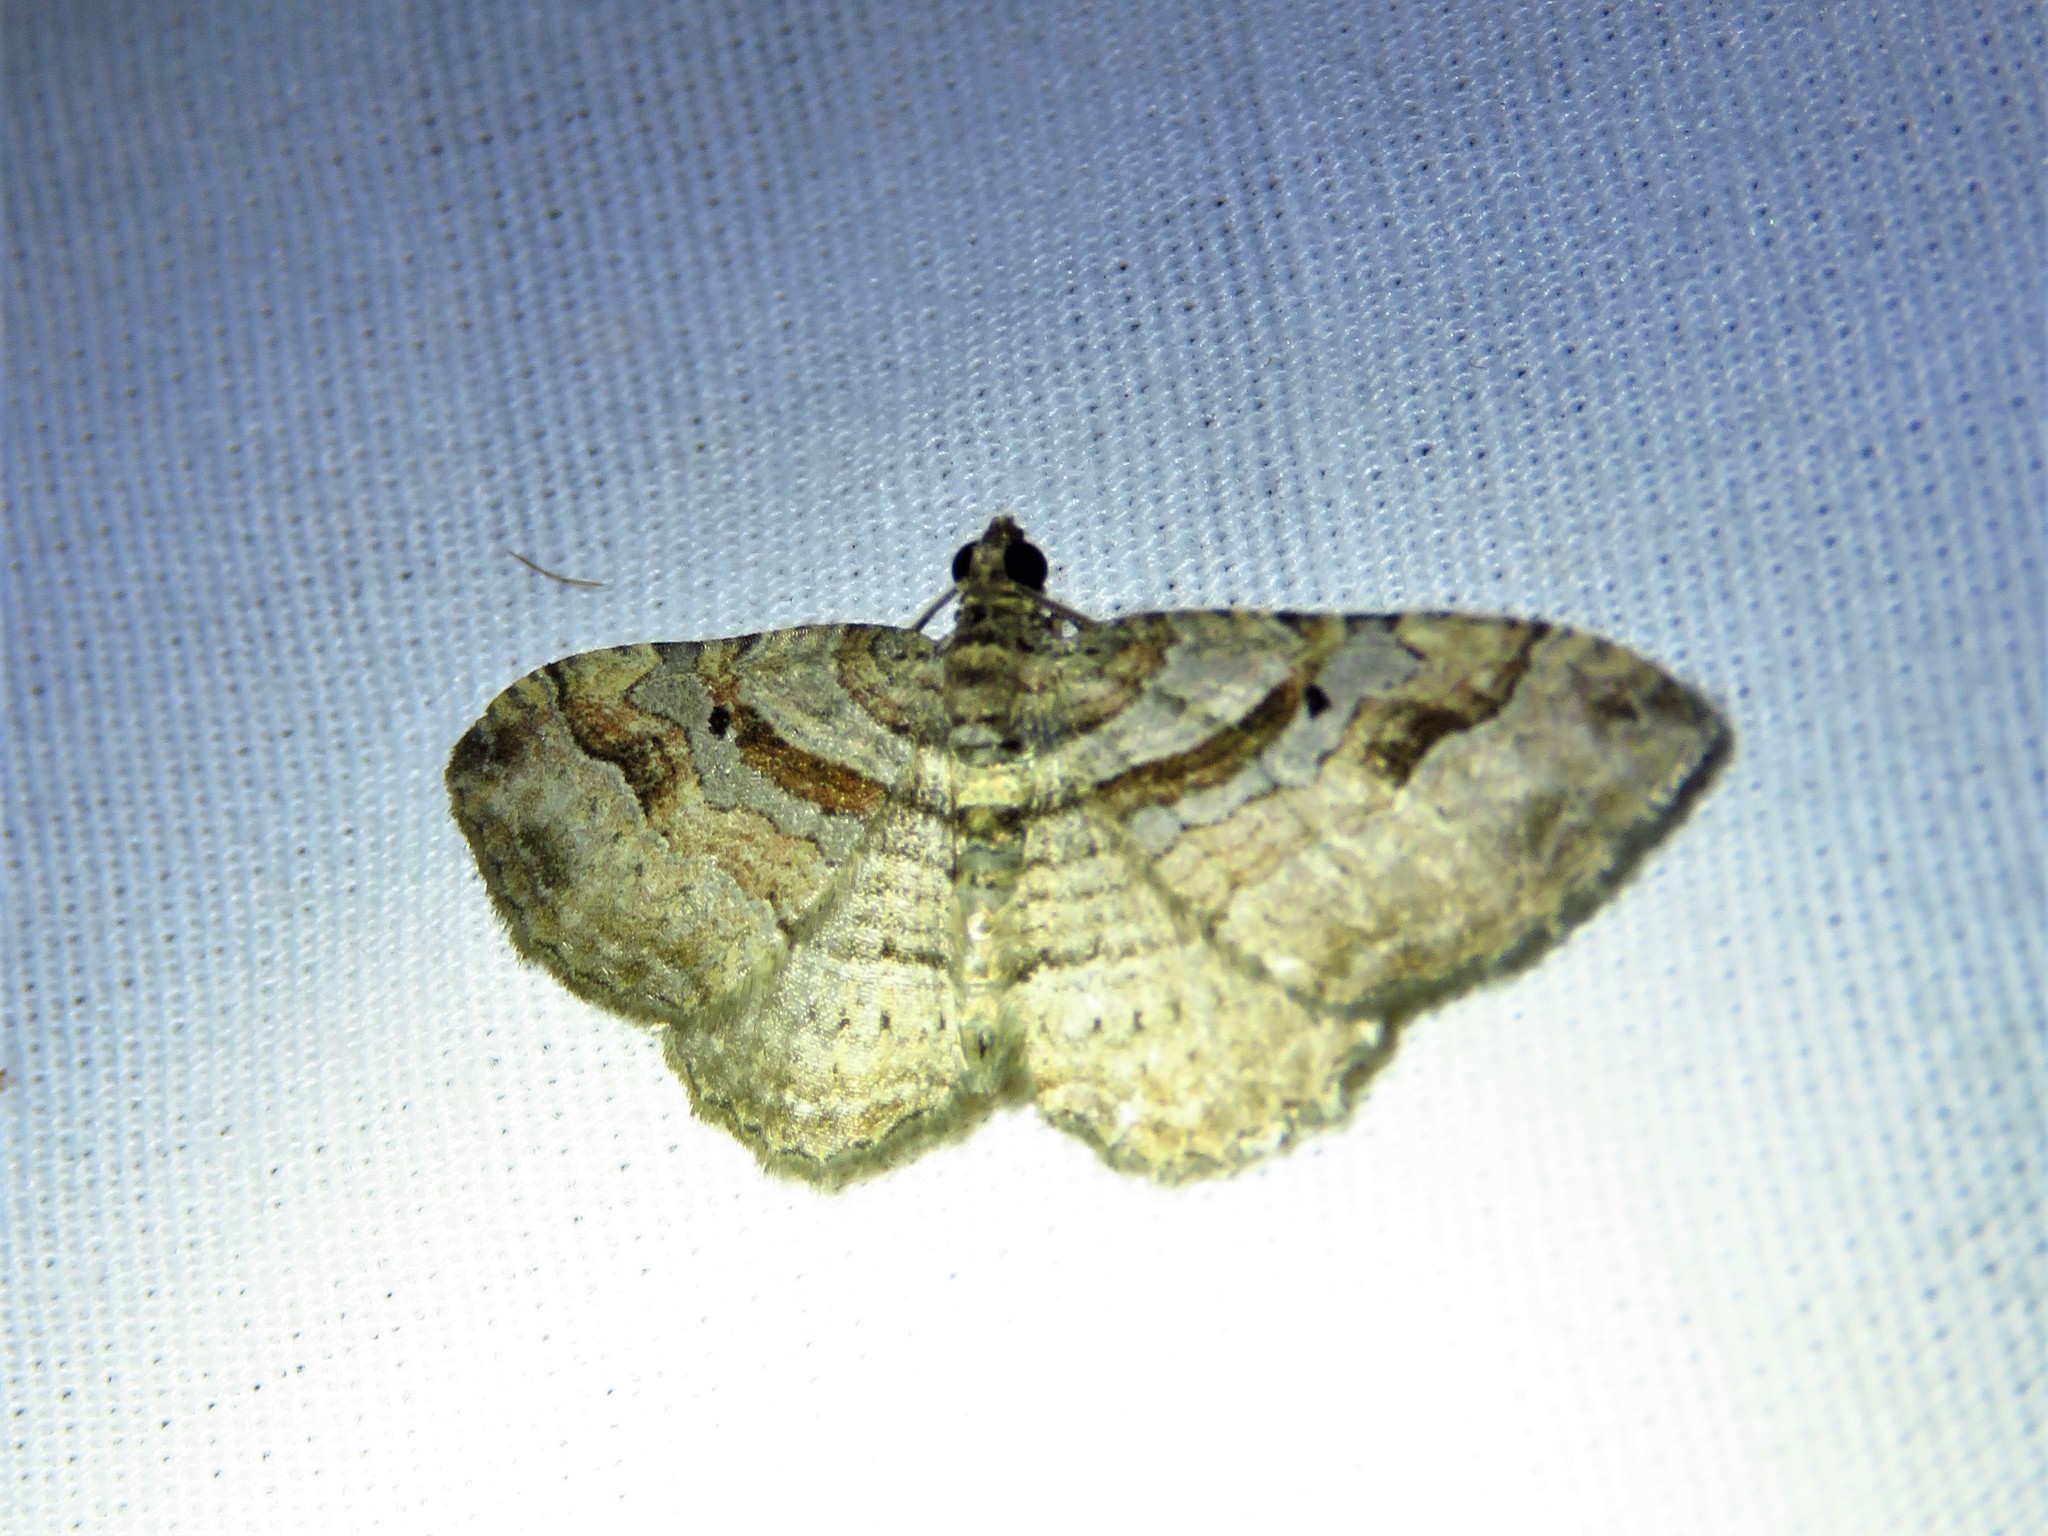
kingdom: Animalia
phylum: Arthropoda
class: Insecta
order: Lepidoptera
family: Geometridae
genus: Costaconvexa
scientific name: Costaconvexa centrostrigaria
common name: Bent-line carpet
